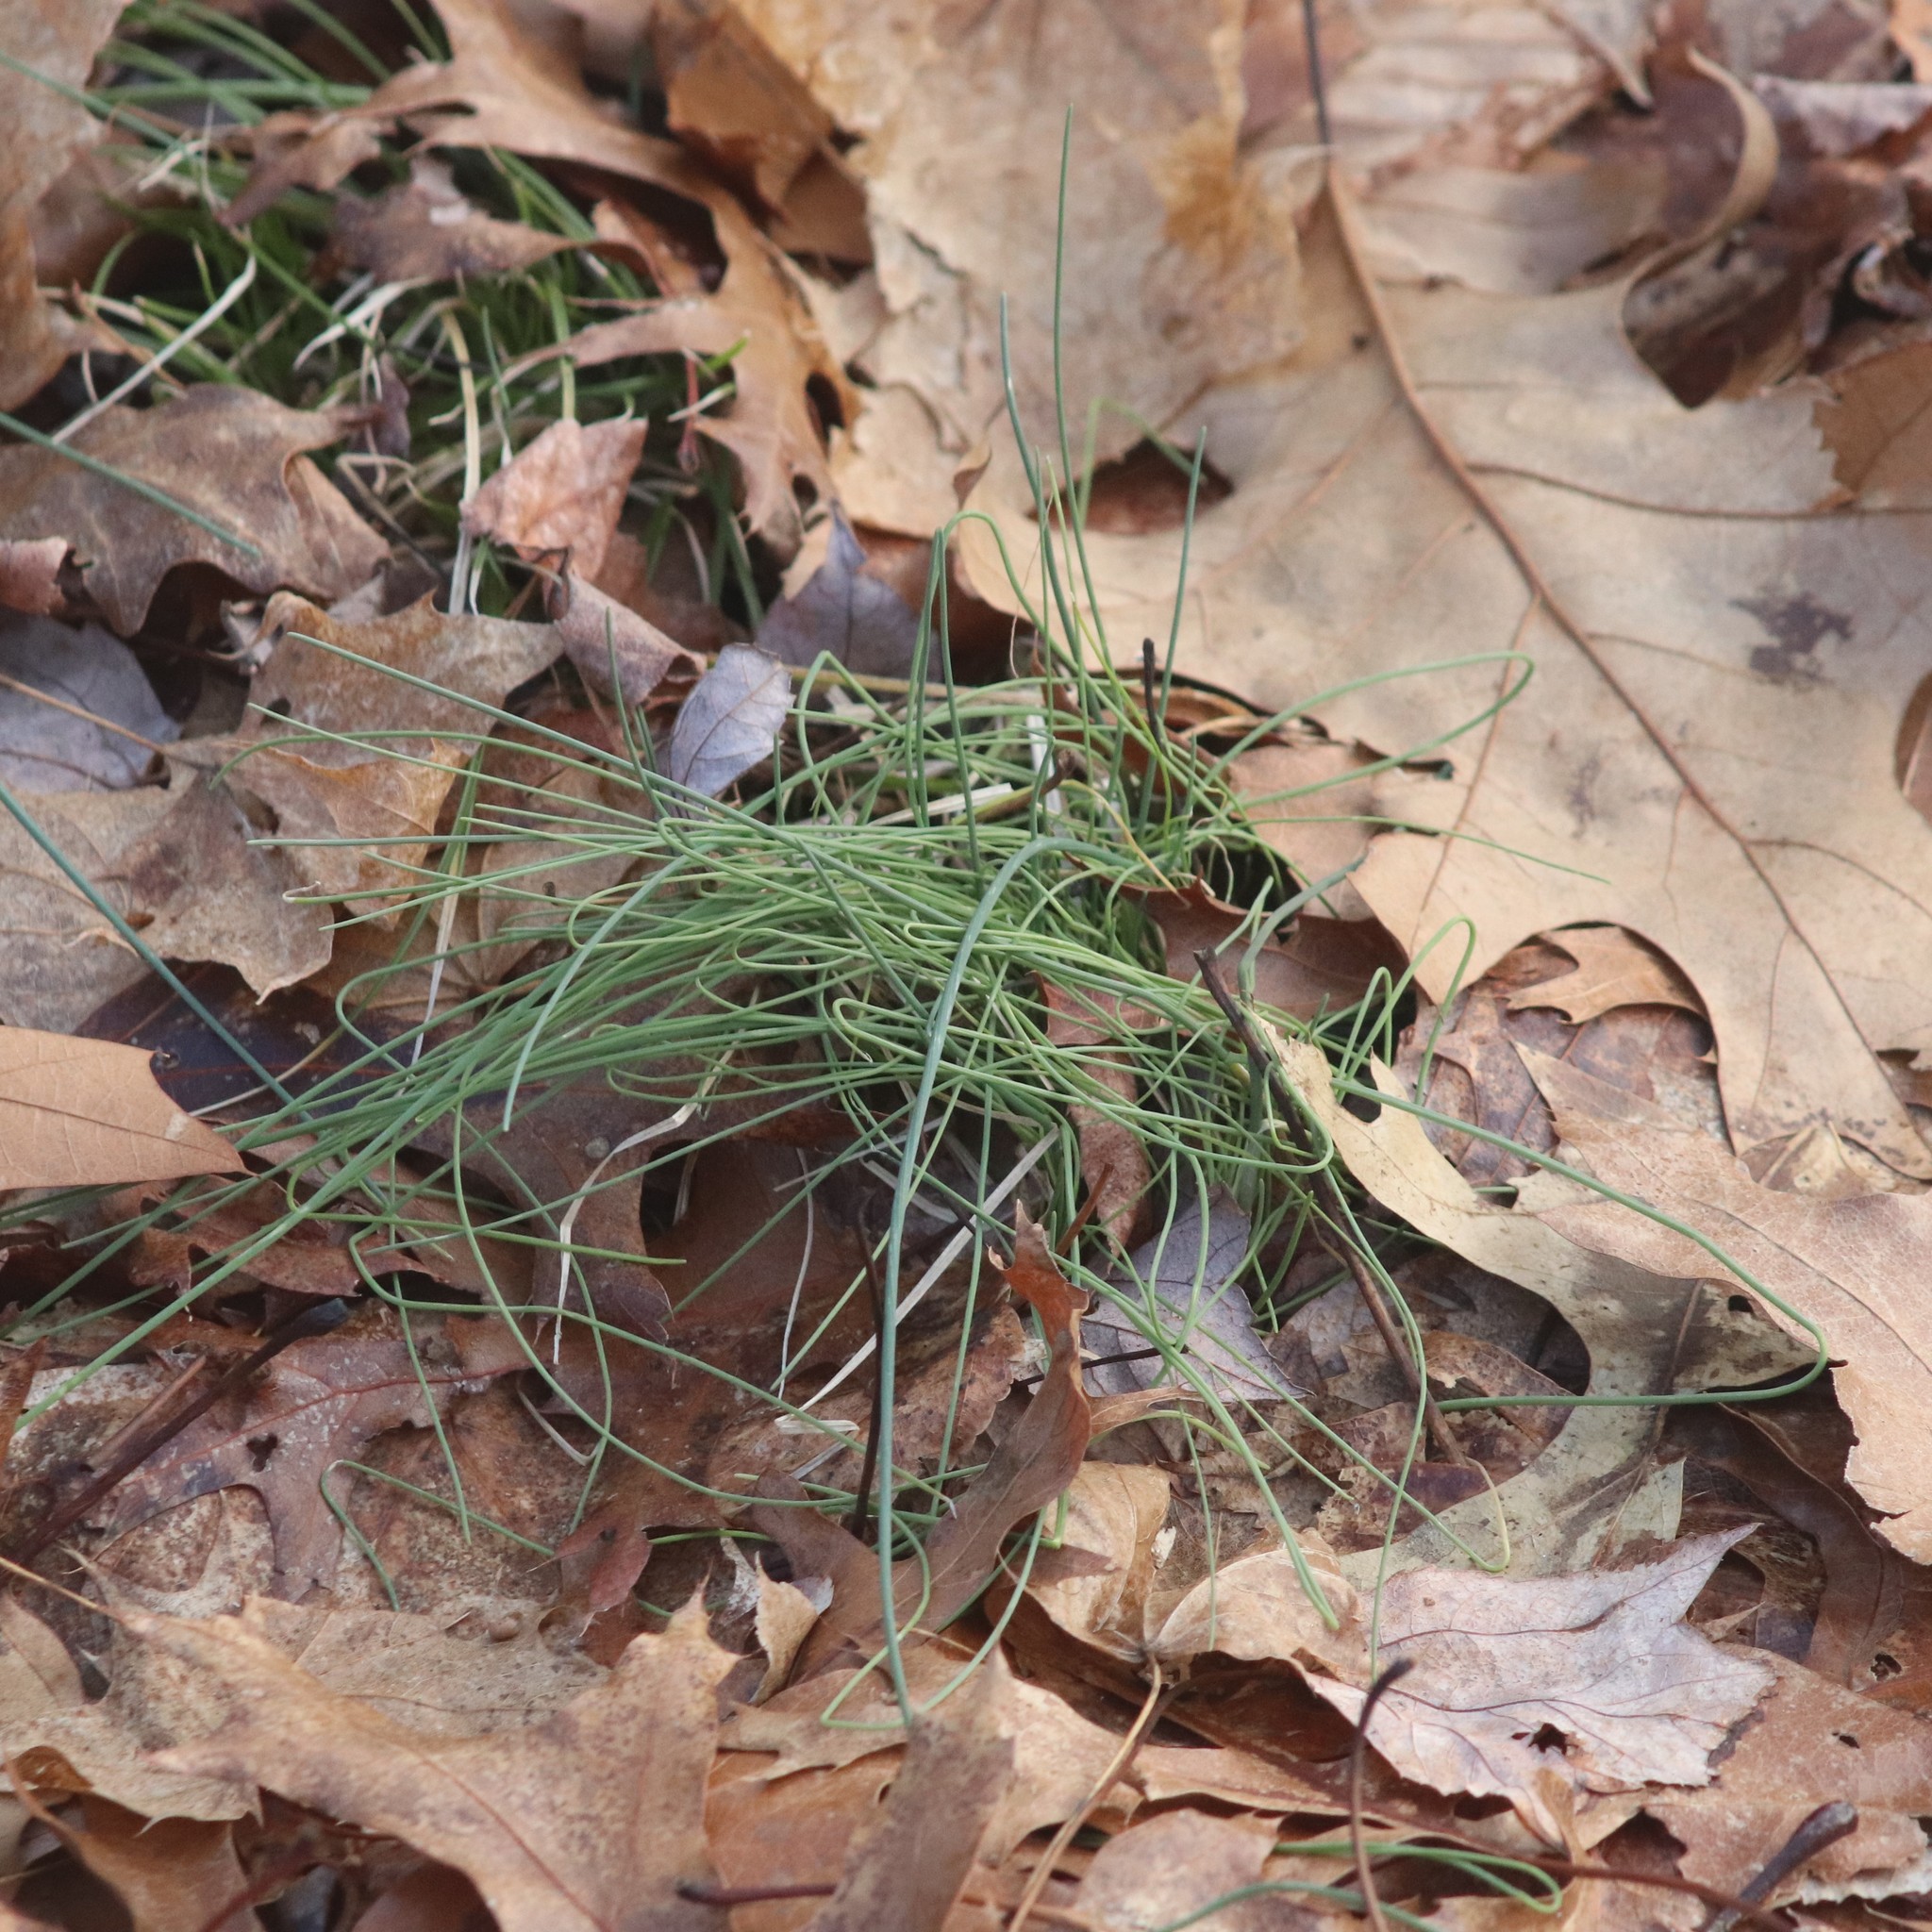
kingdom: Plantae
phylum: Tracheophyta
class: Liliopsida
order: Asparagales
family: Amaryllidaceae
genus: Allium
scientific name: Allium vineale
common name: Crow garlic
